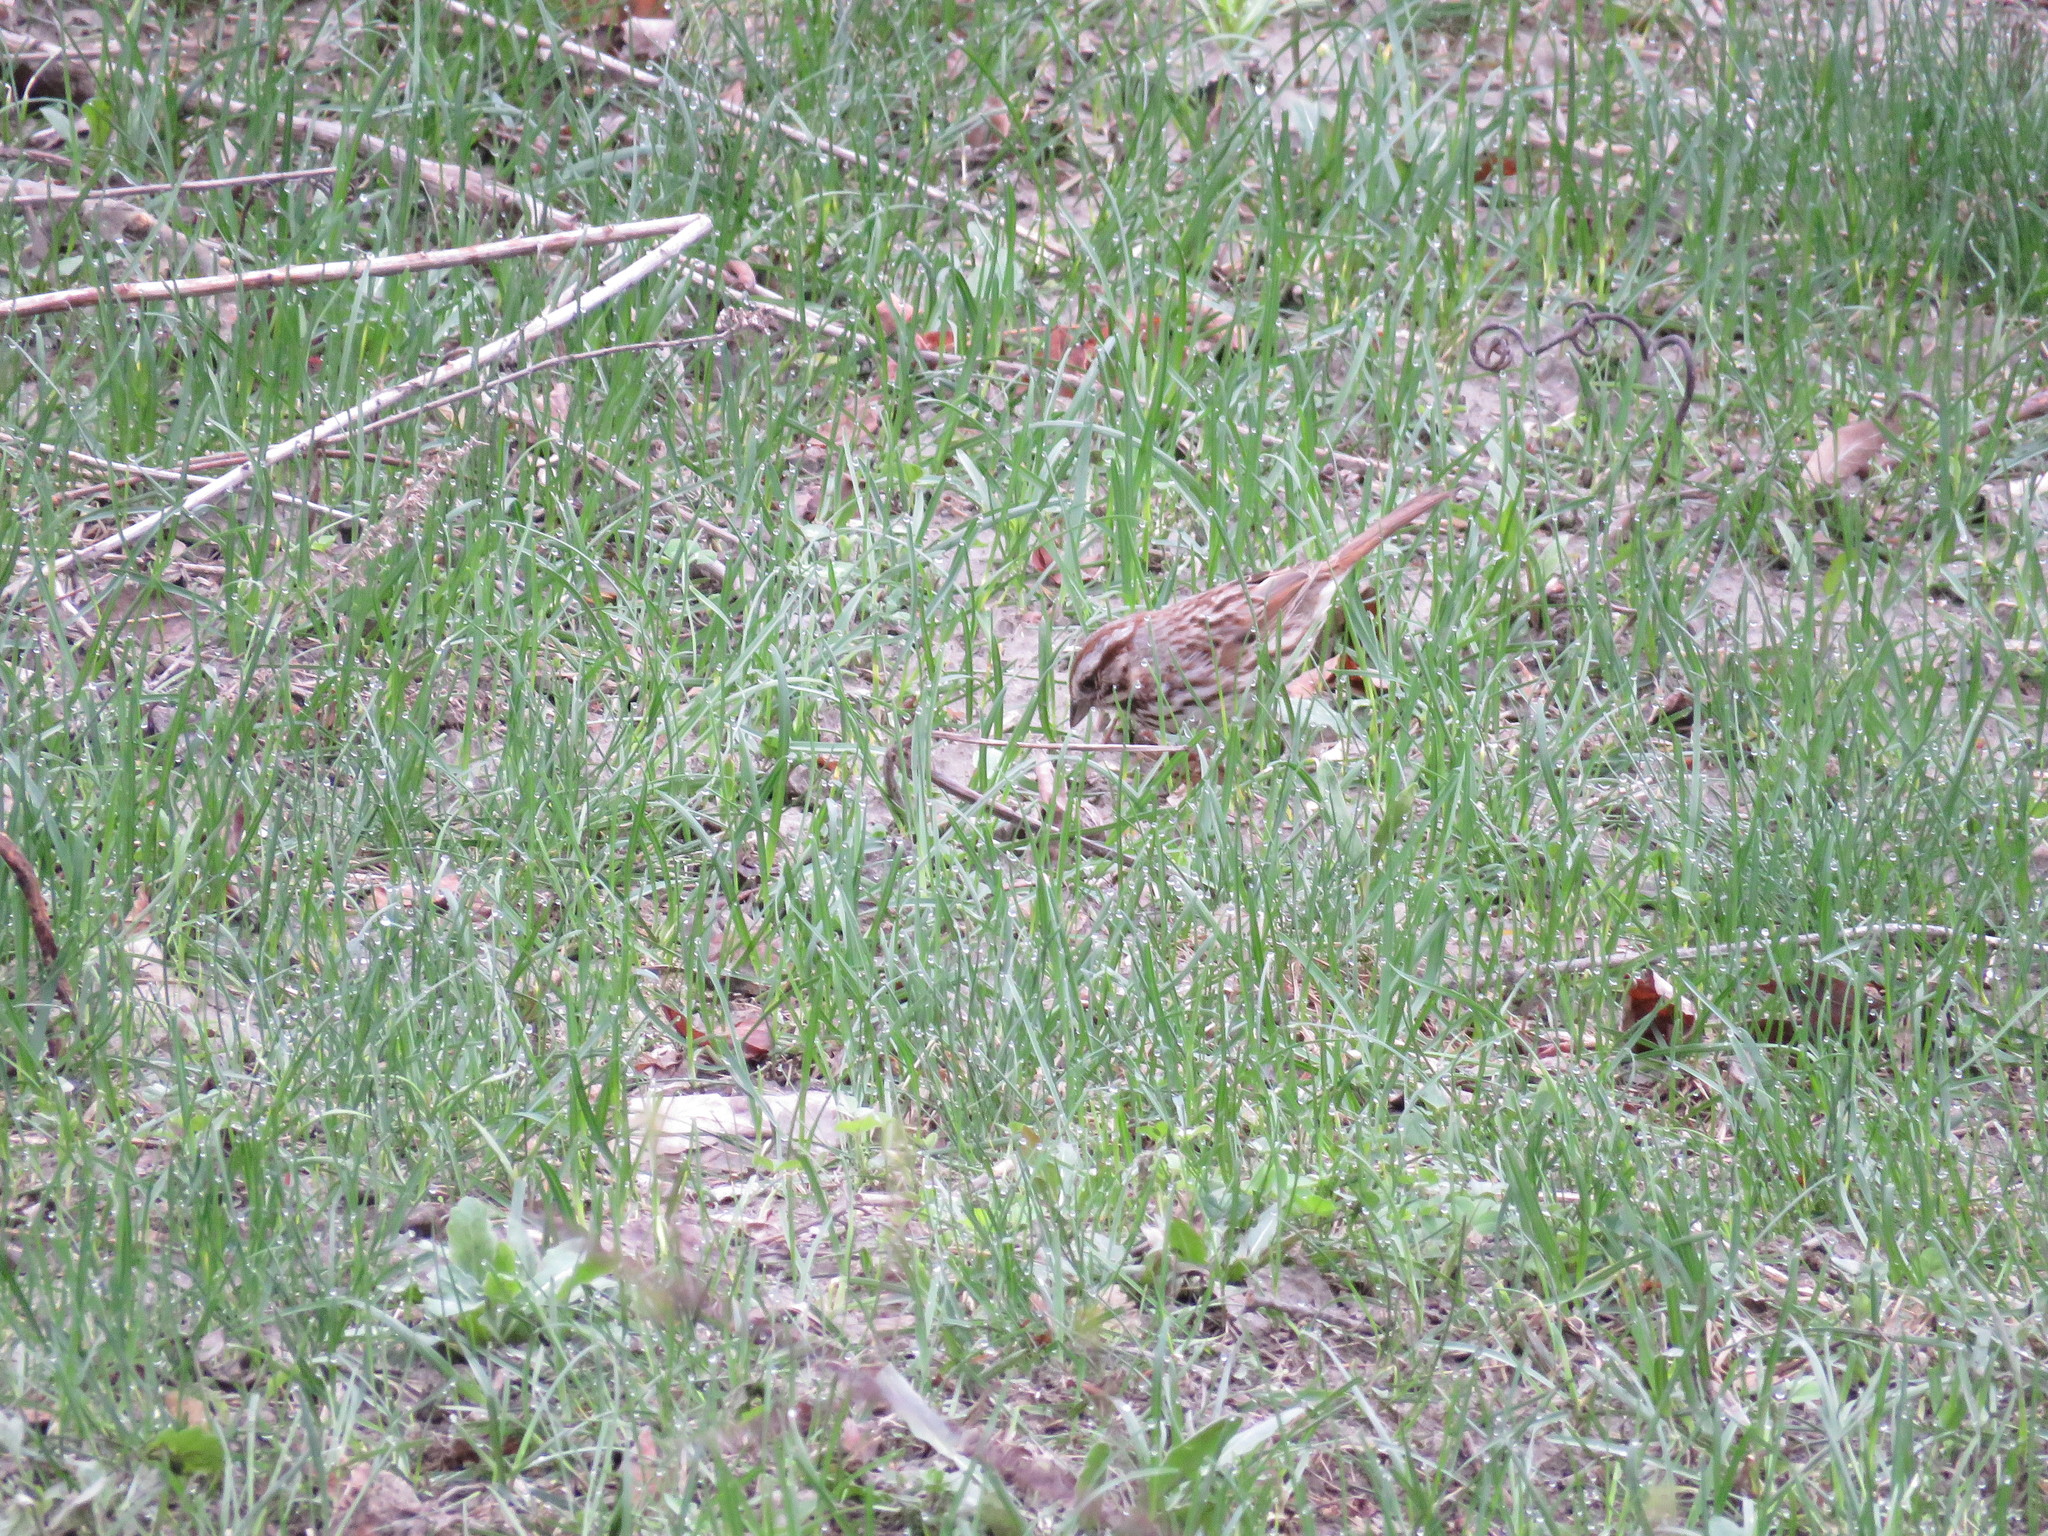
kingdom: Animalia
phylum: Chordata
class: Aves
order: Passeriformes
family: Passerellidae
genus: Melospiza
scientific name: Melospiza melodia
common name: Song sparrow
